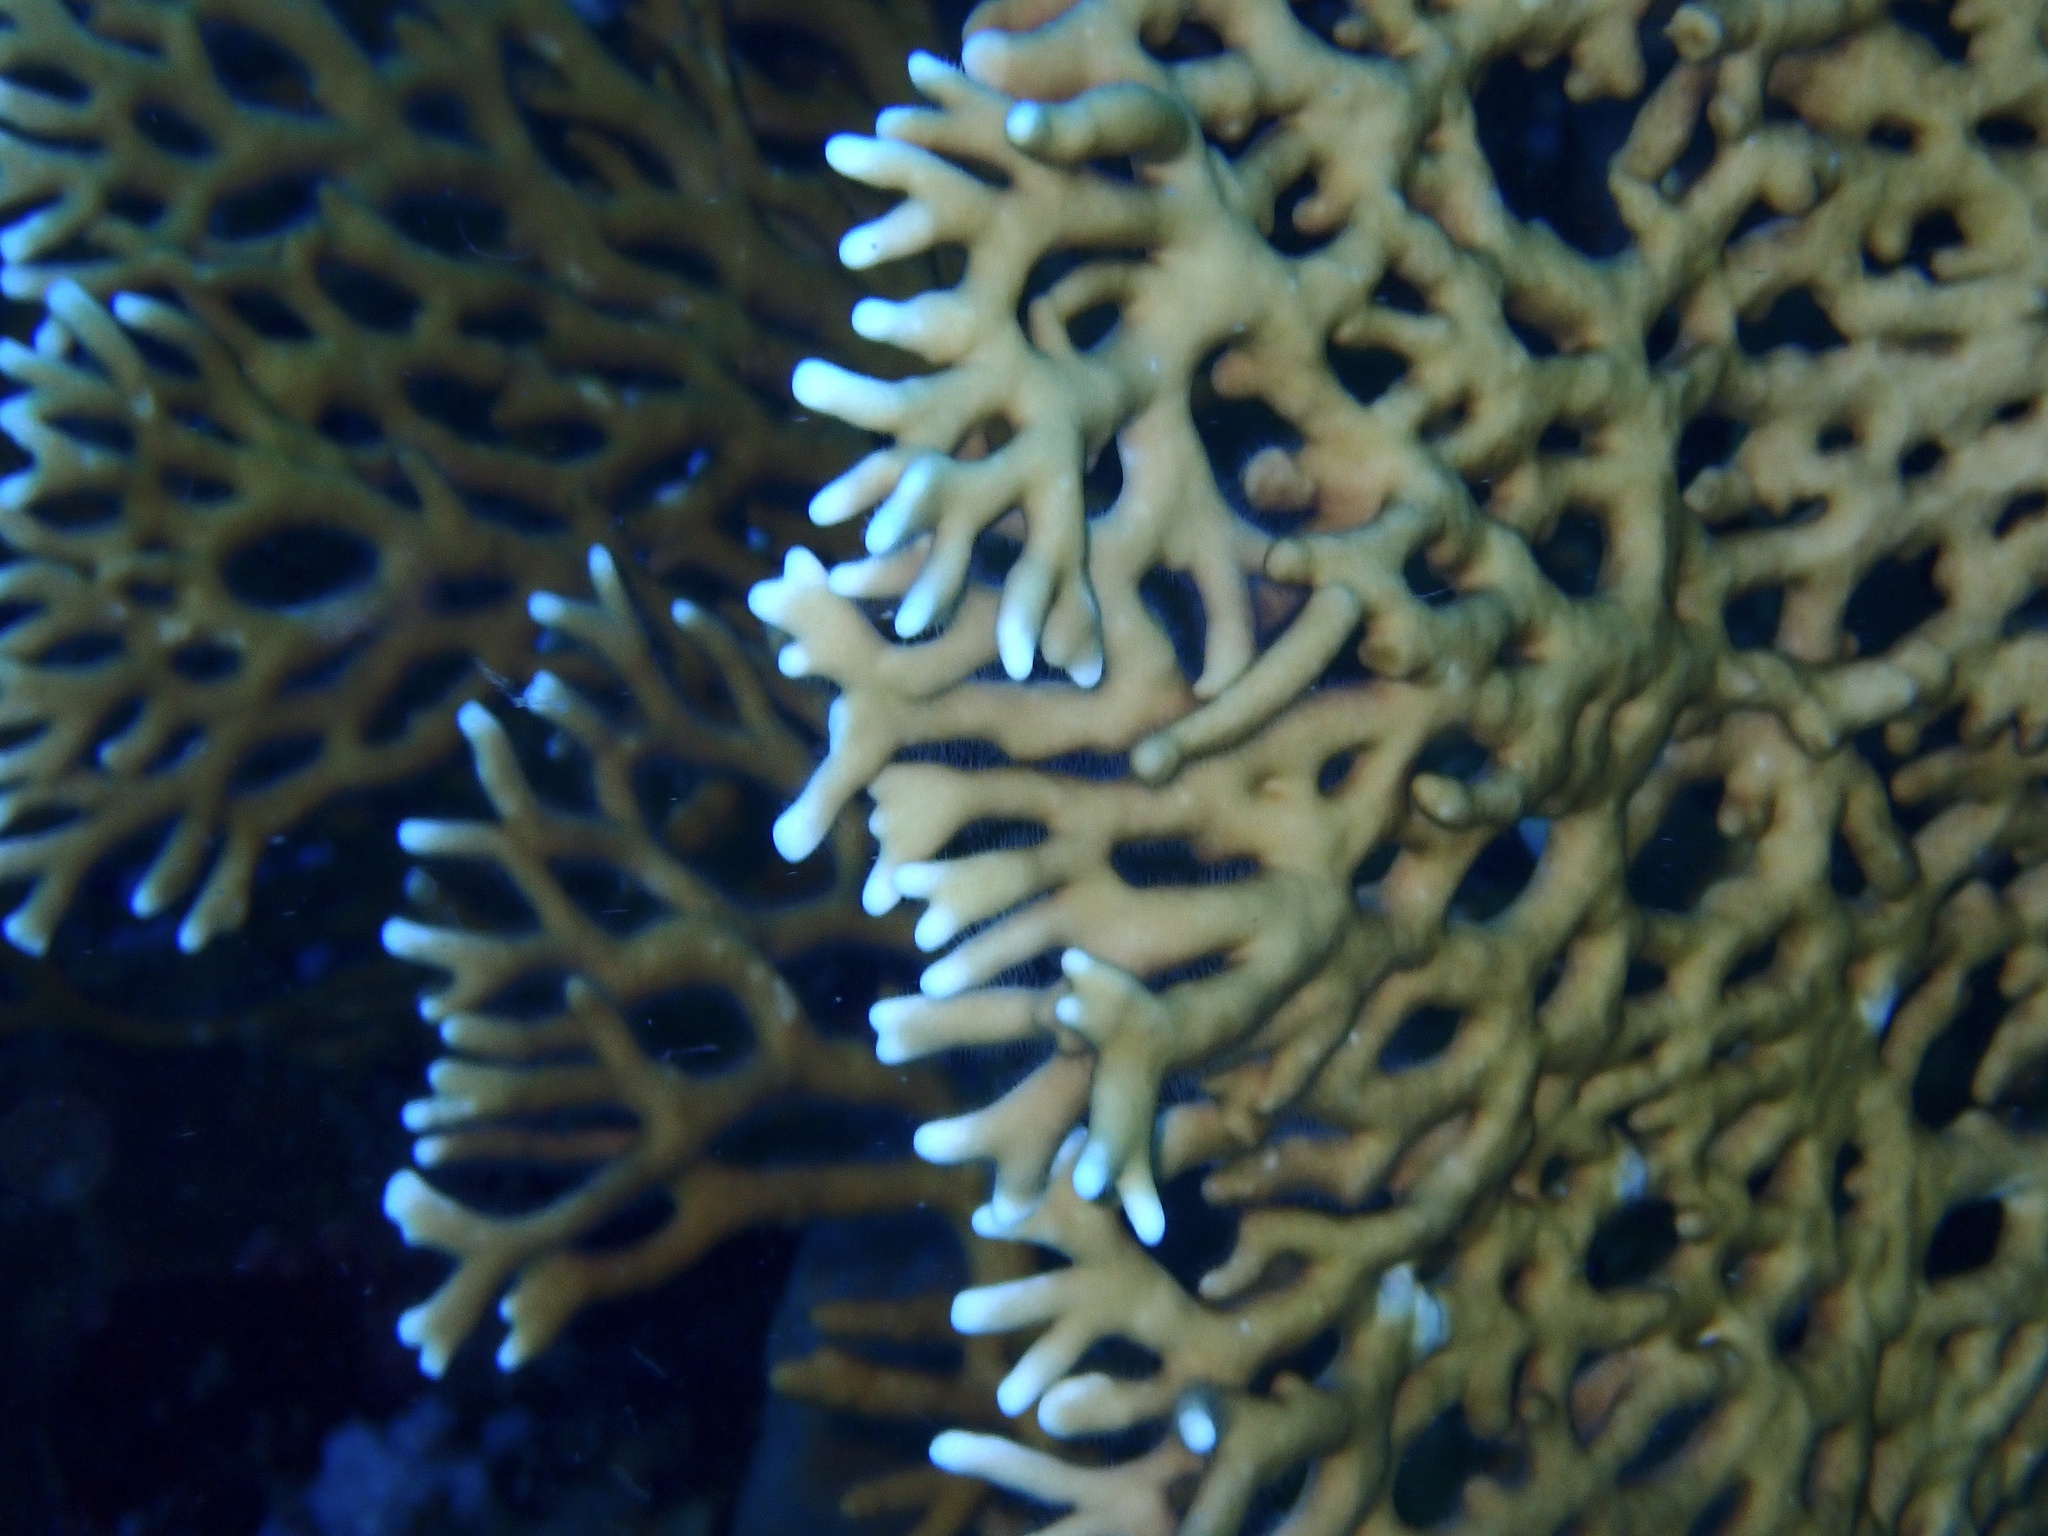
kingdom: Animalia
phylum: Cnidaria
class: Hydrozoa
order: Anthoathecata
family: Milleporidae
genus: Millepora
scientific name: Millepora dichotoma
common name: Ramified fire coral
